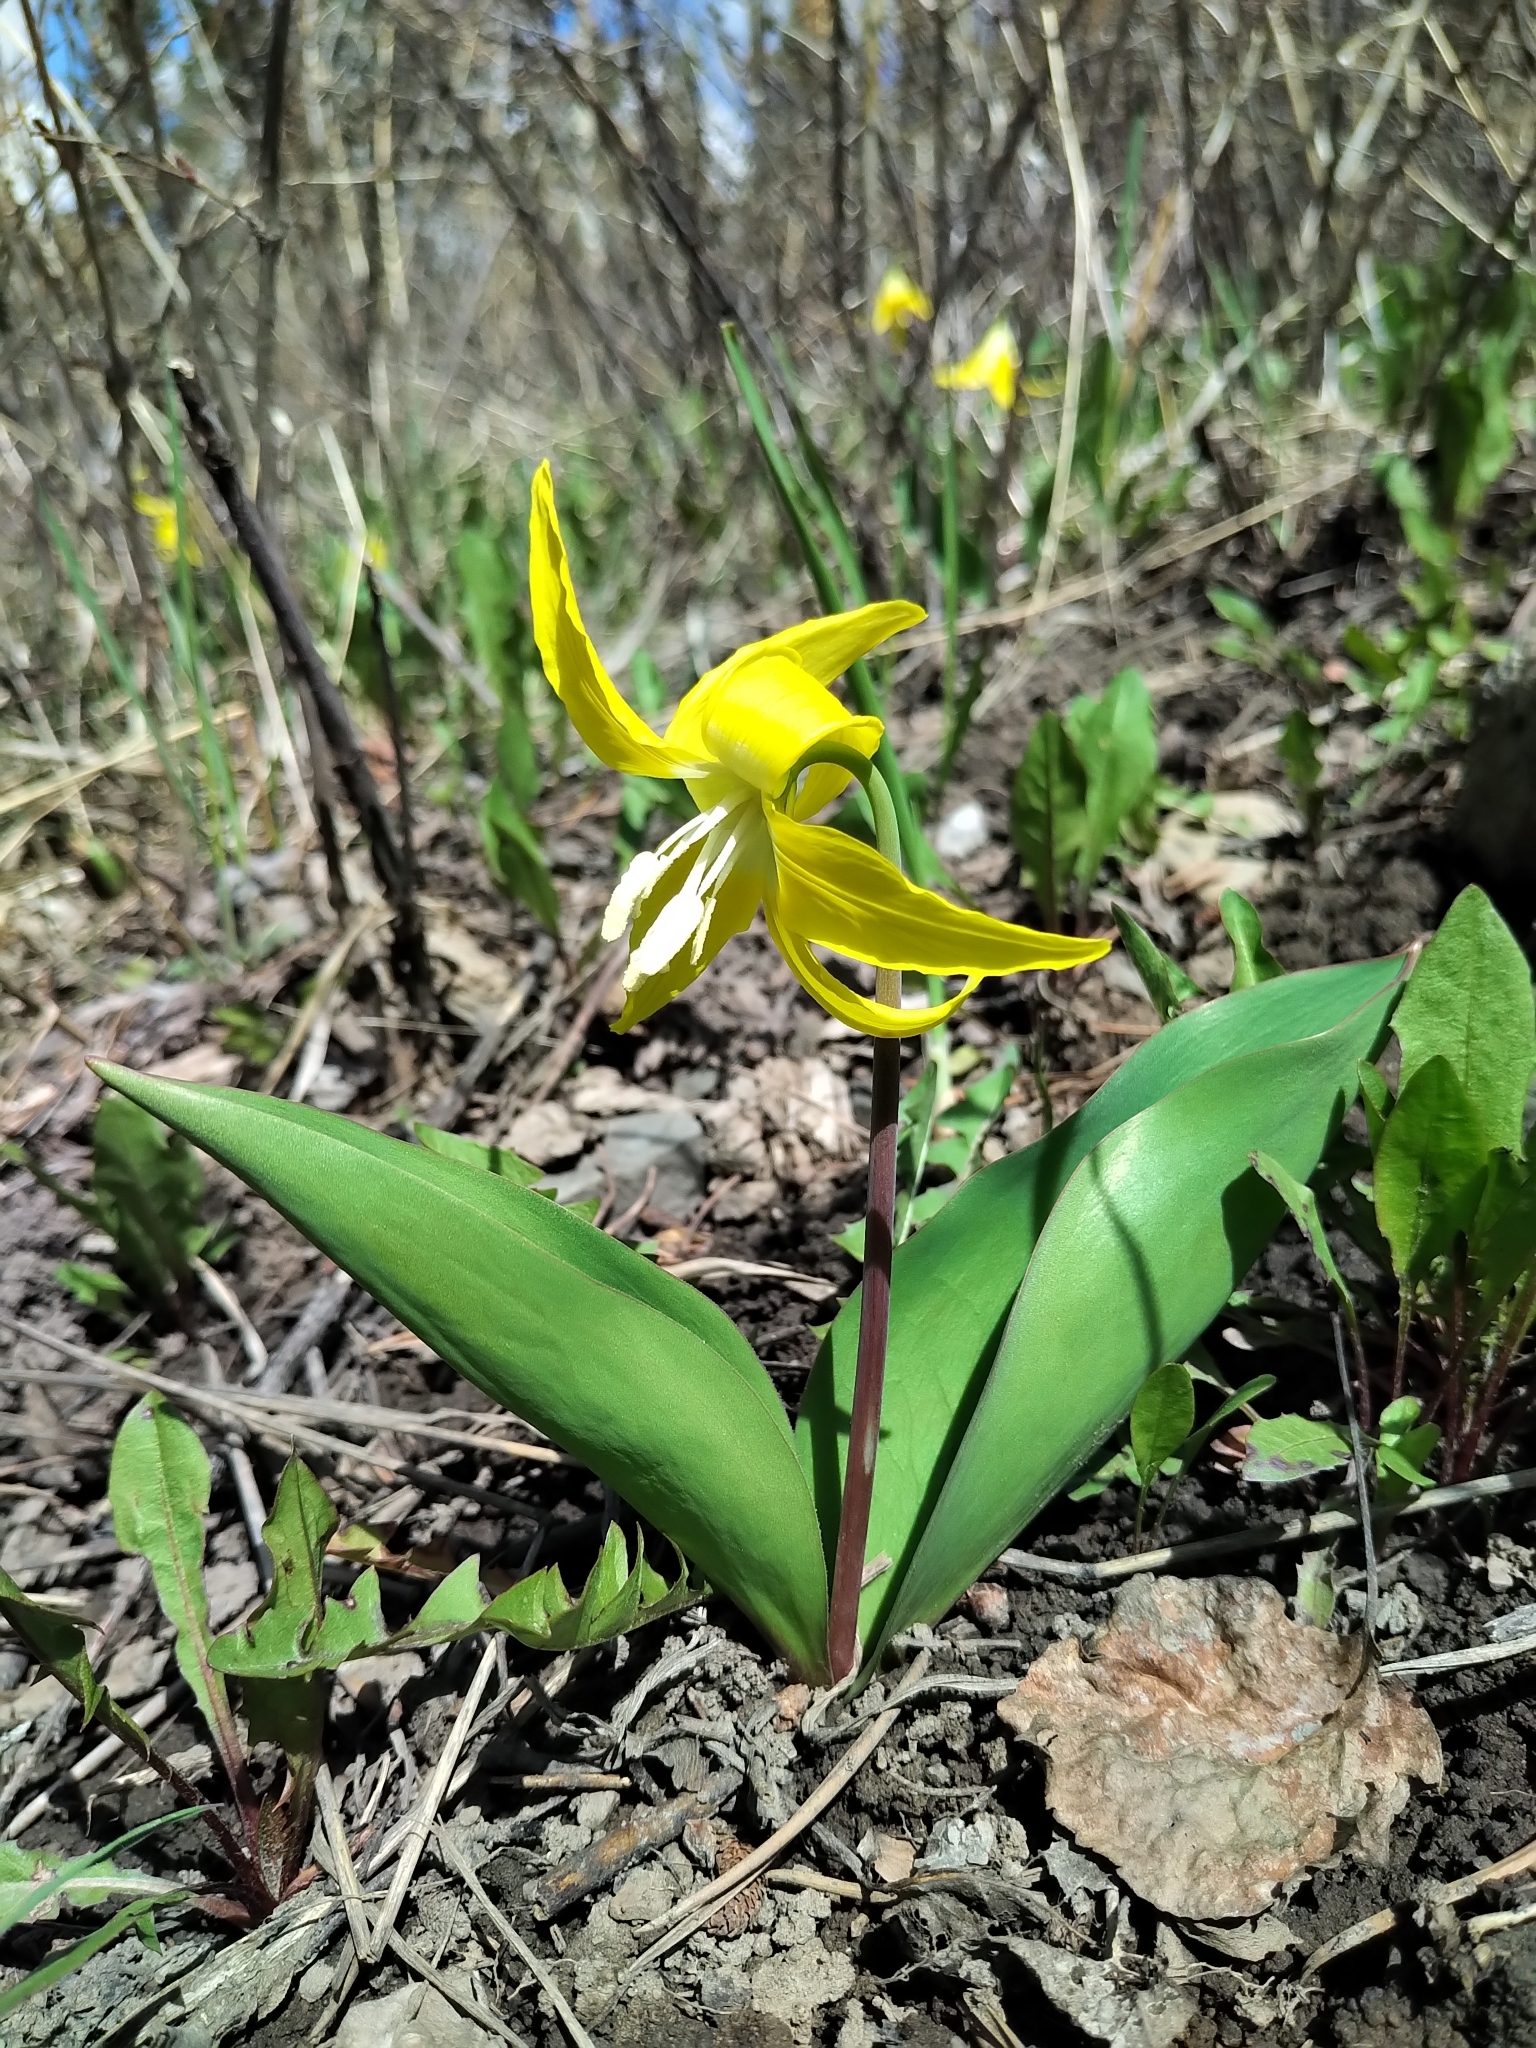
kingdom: Plantae
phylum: Tracheophyta
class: Liliopsida
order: Liliales
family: Liliaceae
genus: Erythronium
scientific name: Erythronium grandiflorum
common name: Avalanche-lily
